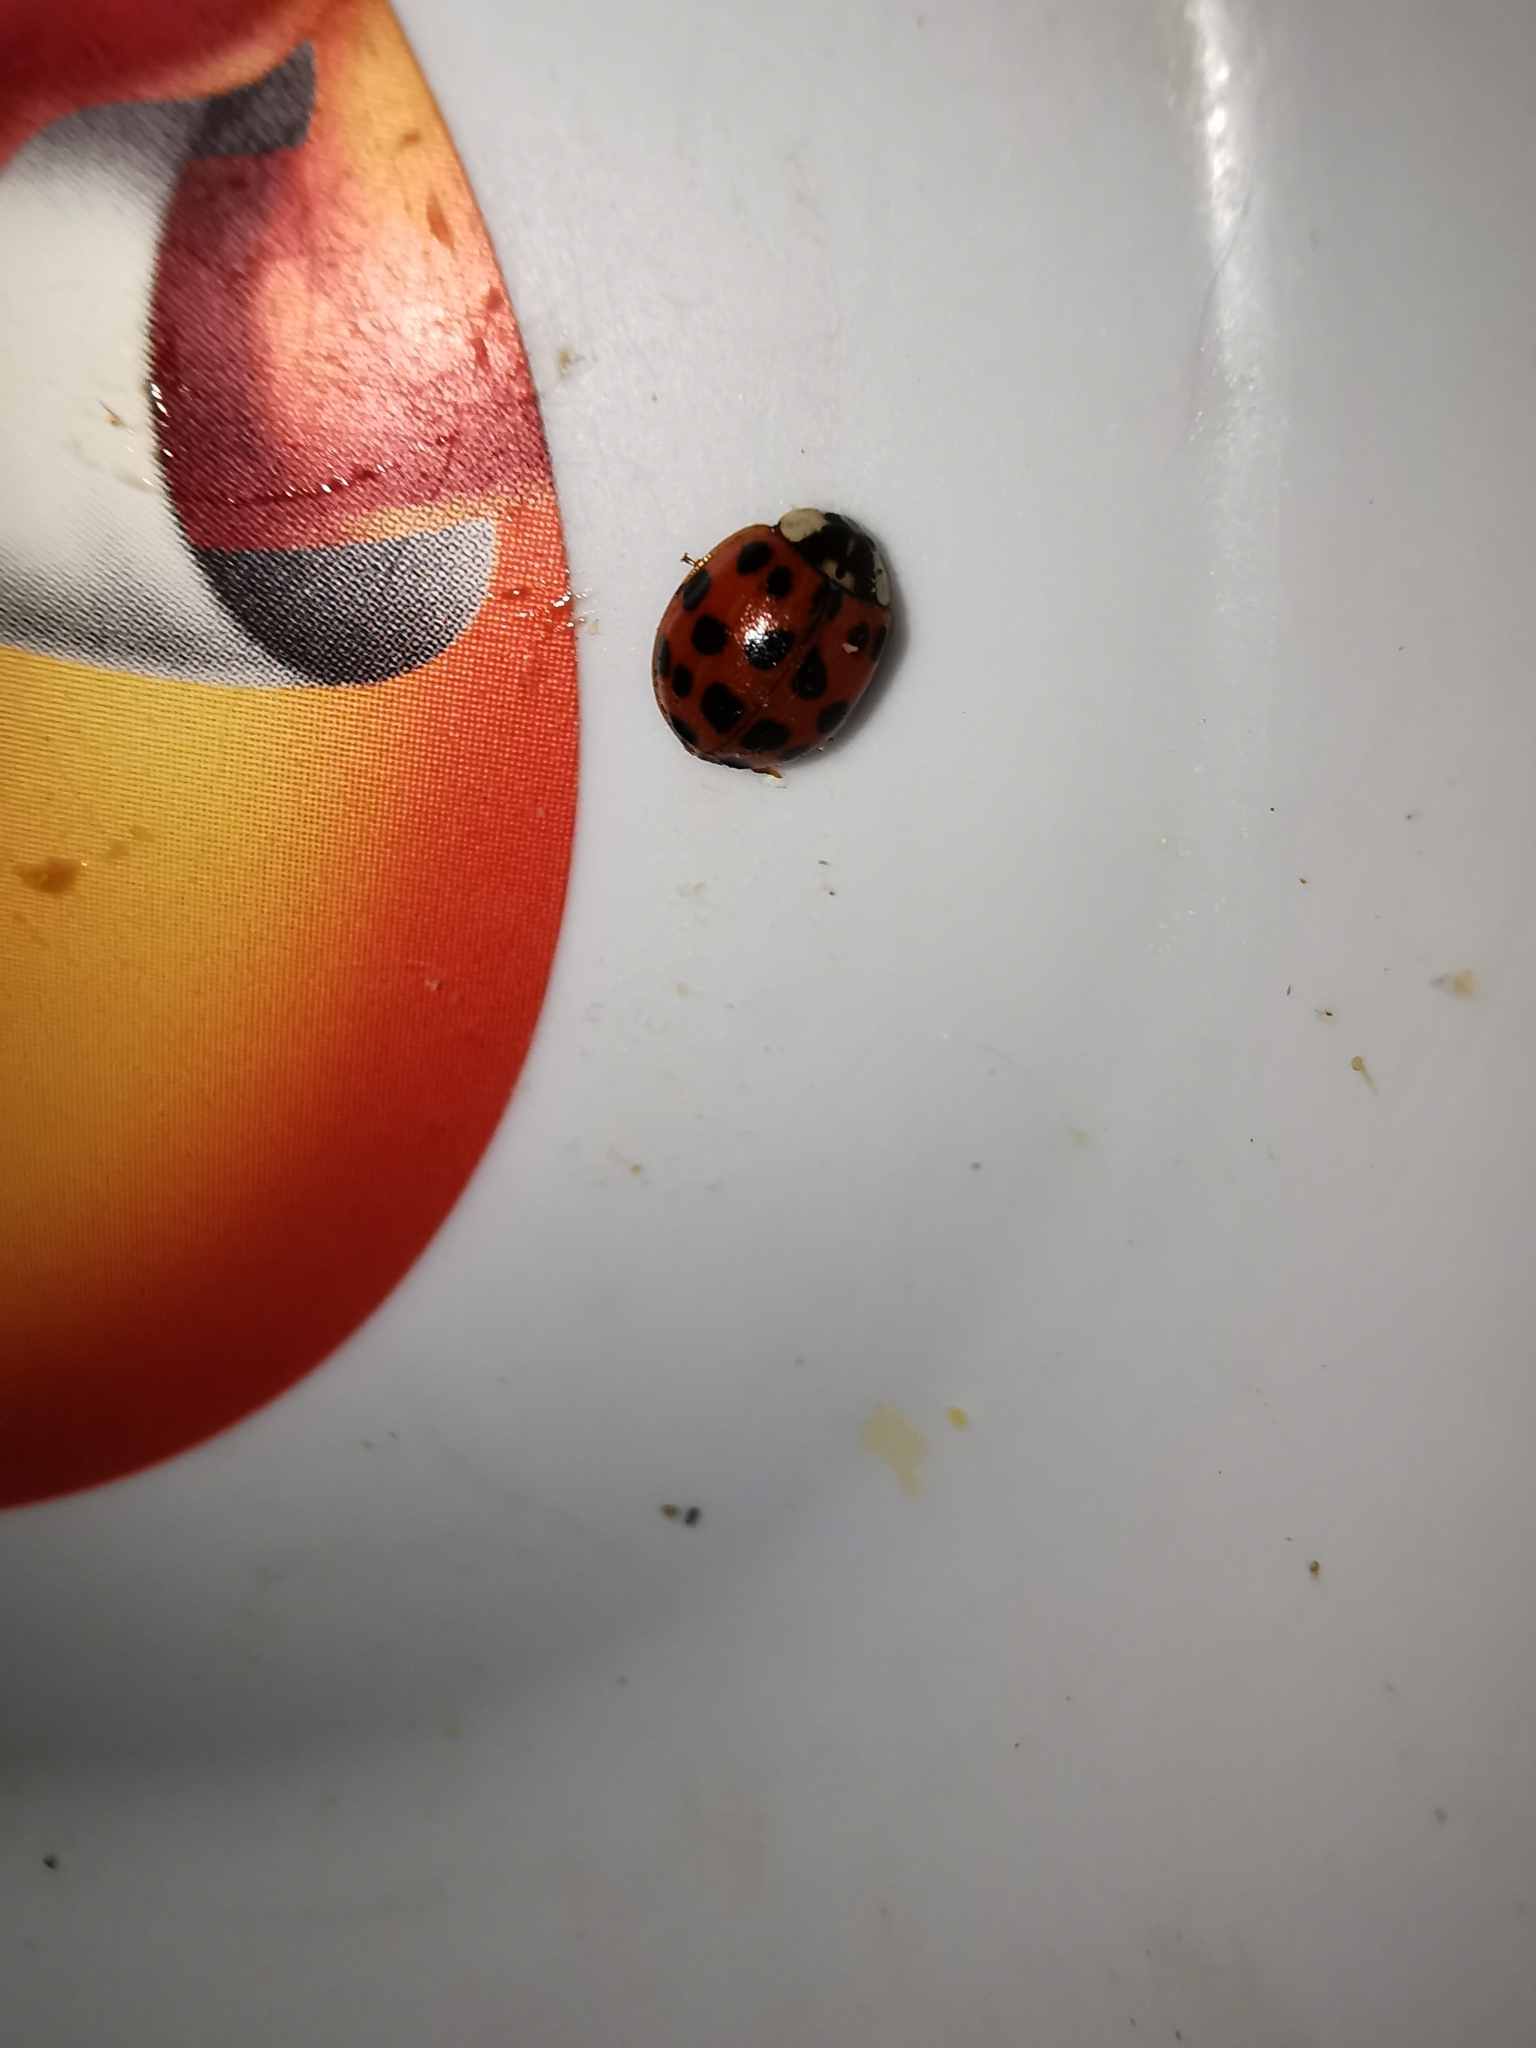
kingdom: Animalia
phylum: Arthropoda
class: Insecta
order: Coleoptera
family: Coccinellidae
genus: Harmonia
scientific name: Harmonia axyridis
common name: Harlequin ladybird
